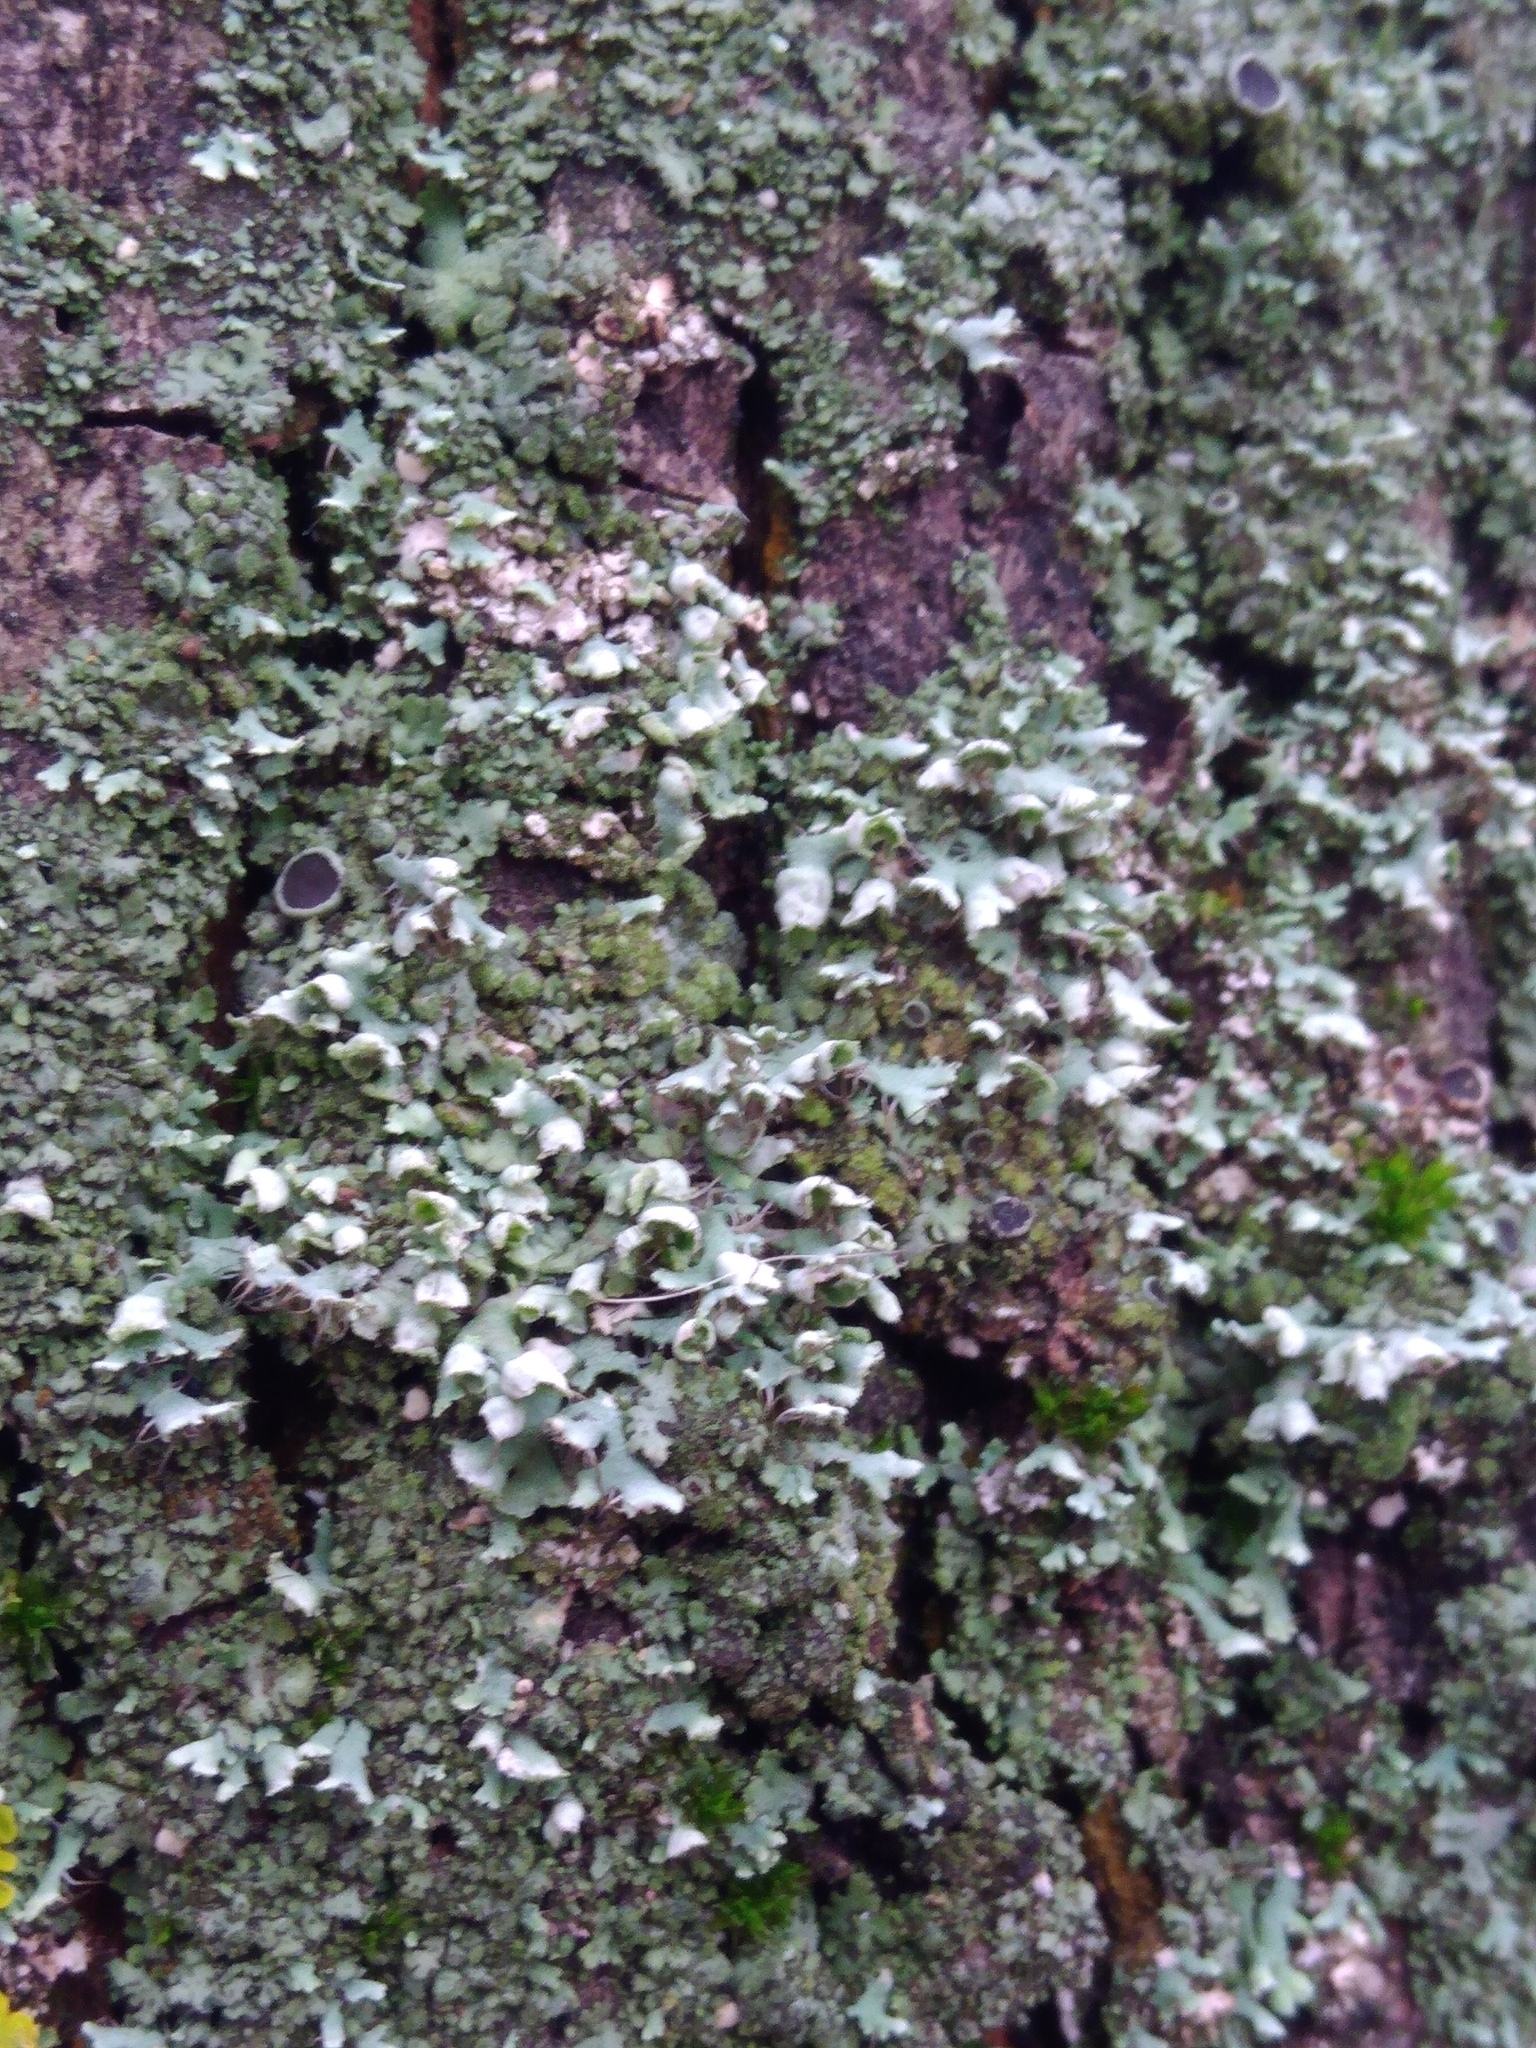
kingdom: Fungi
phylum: Ascomycota
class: Lecanoromycetes
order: Caliciales
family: Physciaceae
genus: Physcia
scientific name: Physcia adscendens
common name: Hooded rosette lichen
